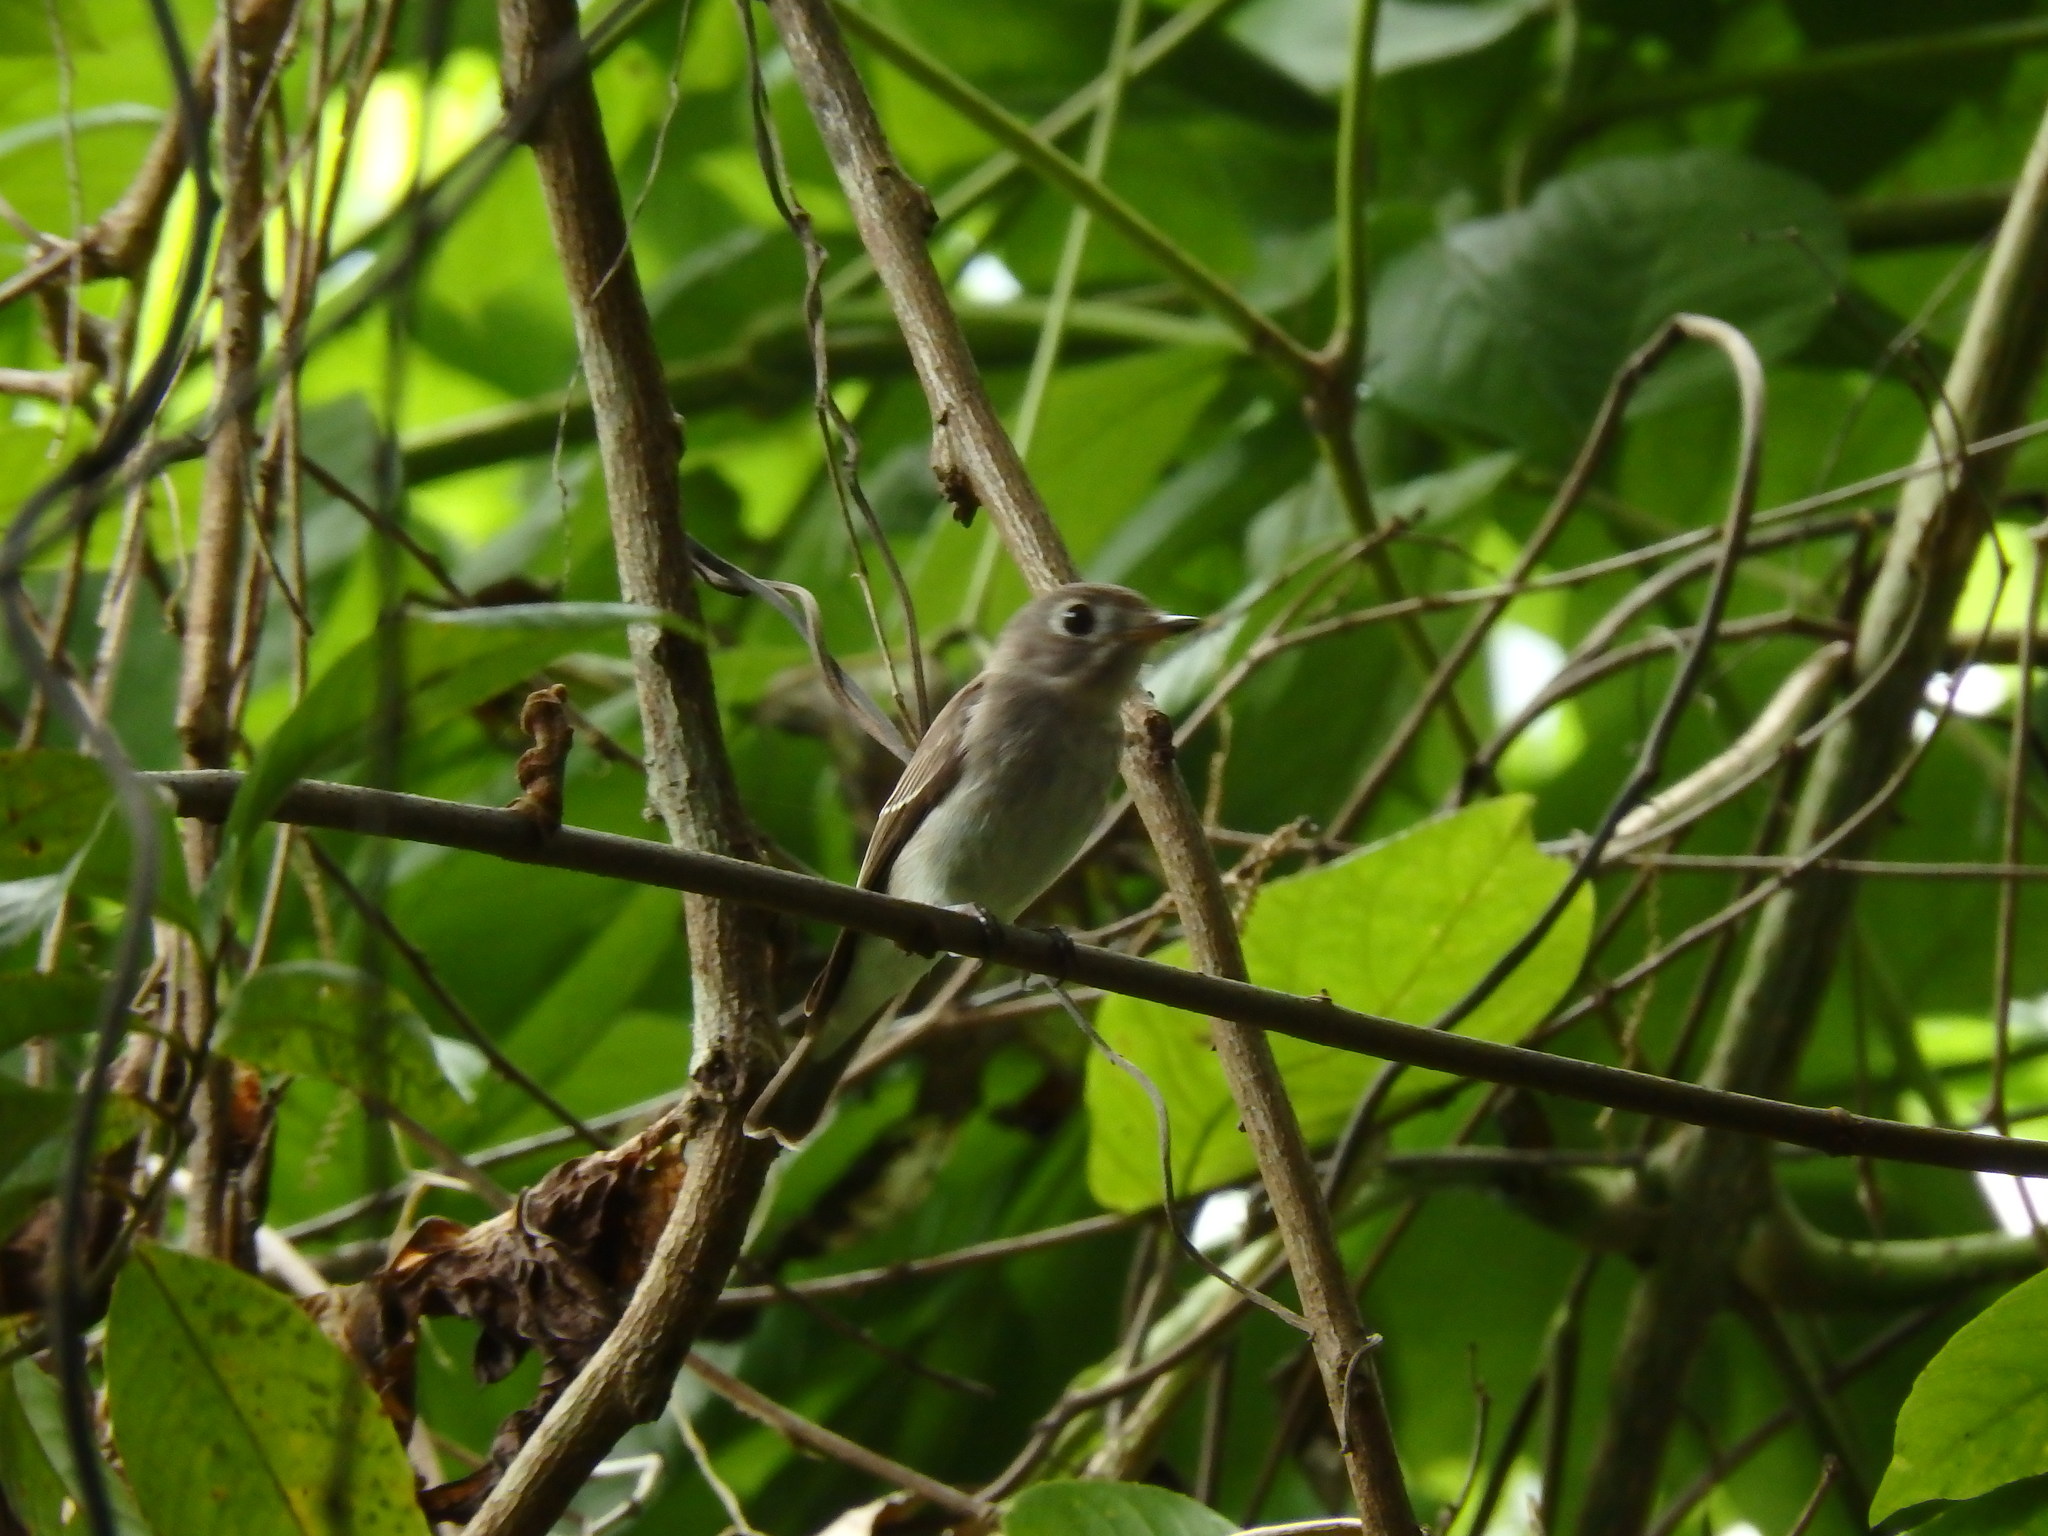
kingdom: Animalia
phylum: Chordata
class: Aves
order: Passeriformes
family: Muscicapidae
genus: Muscicapa
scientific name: Muscicapa latirostris
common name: Asian brown flycatcher
